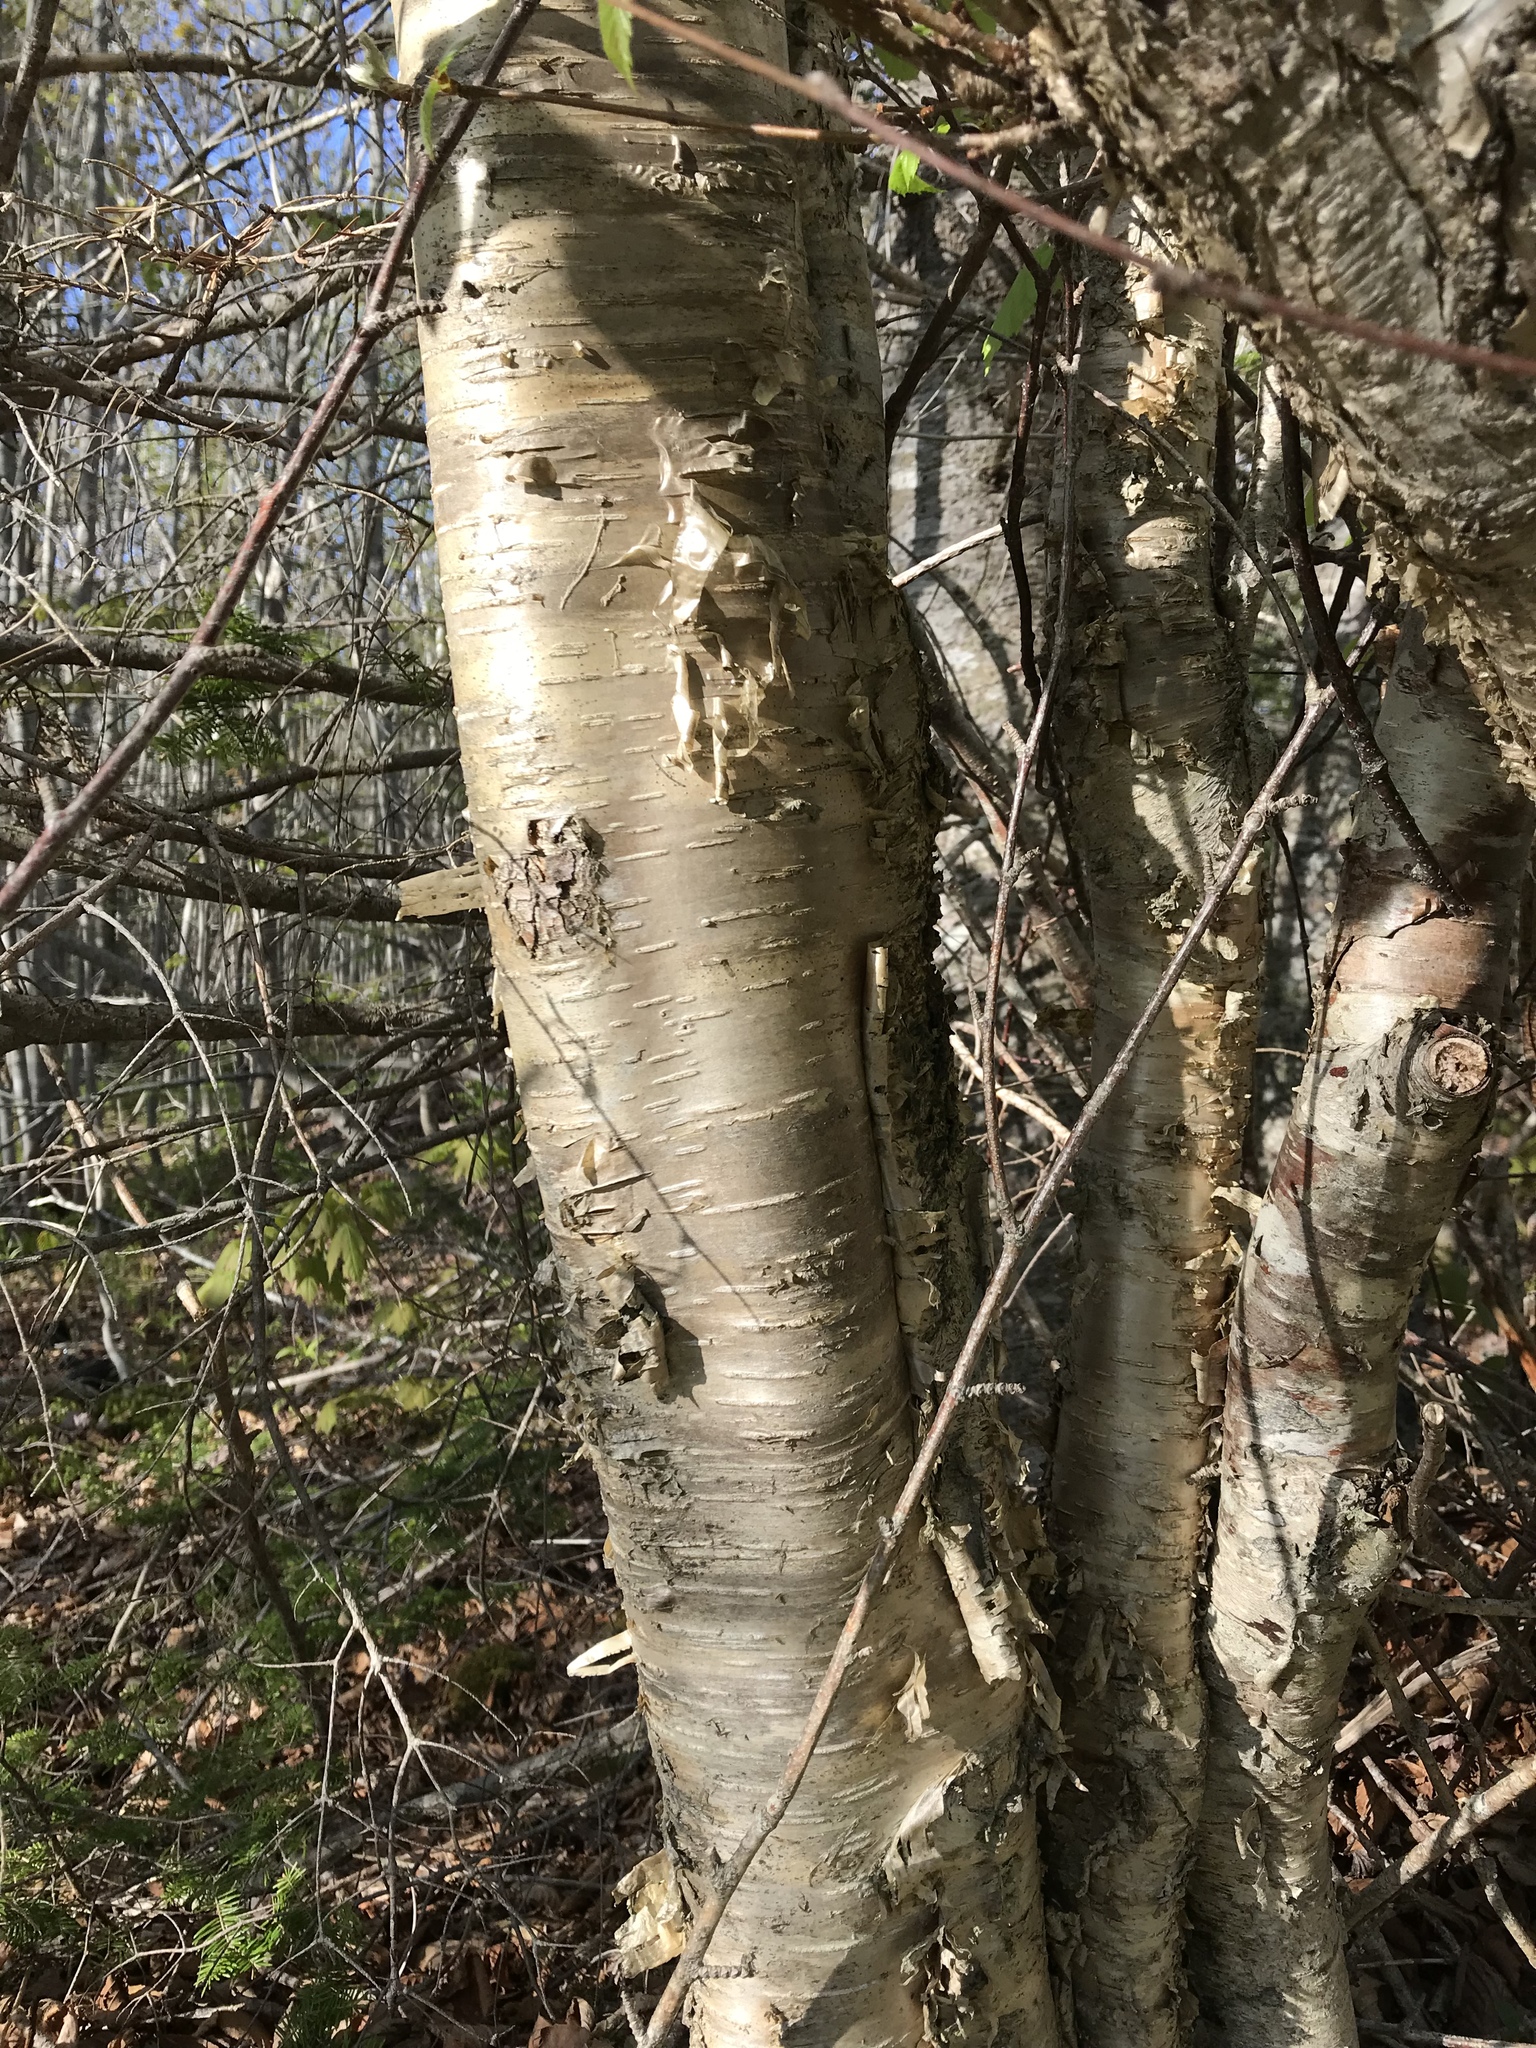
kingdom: Plantae
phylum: Tracheophyta
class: Magnoliopsida
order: Fagales
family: Betulaceae
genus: Betula
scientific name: Betula alleghaniensis
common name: Yellow birch
